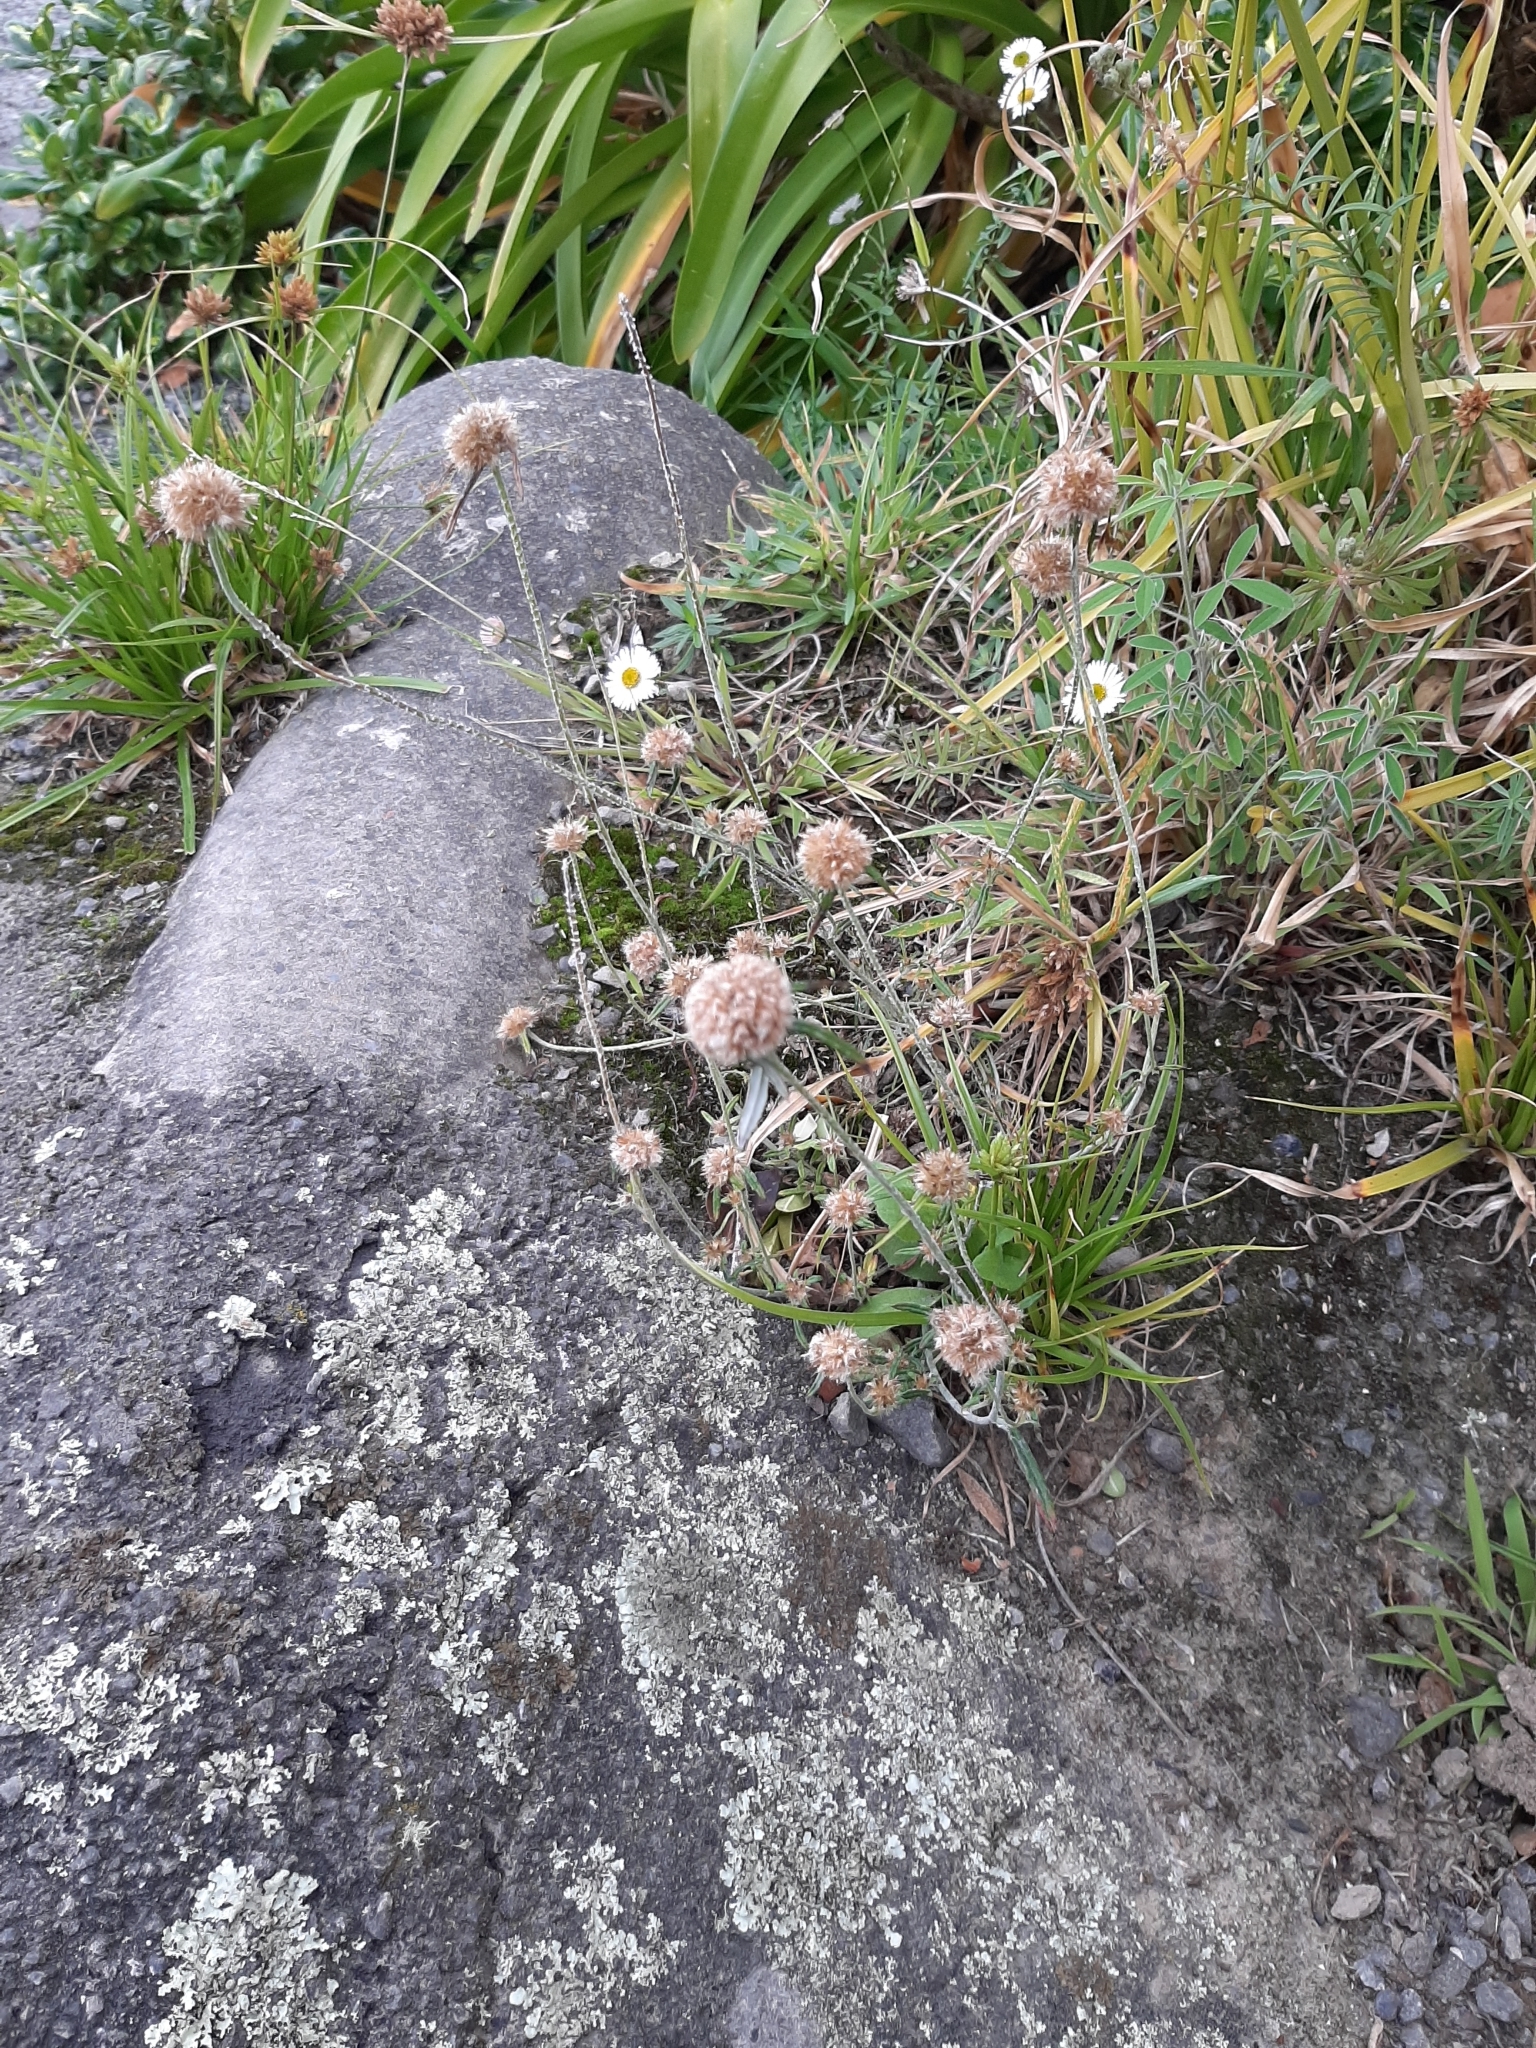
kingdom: Plantae
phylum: Tracheophyta
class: Magnoliopsida
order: Asterales
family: Asteraceae
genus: Euchiton
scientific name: Euchiton sphaericus
